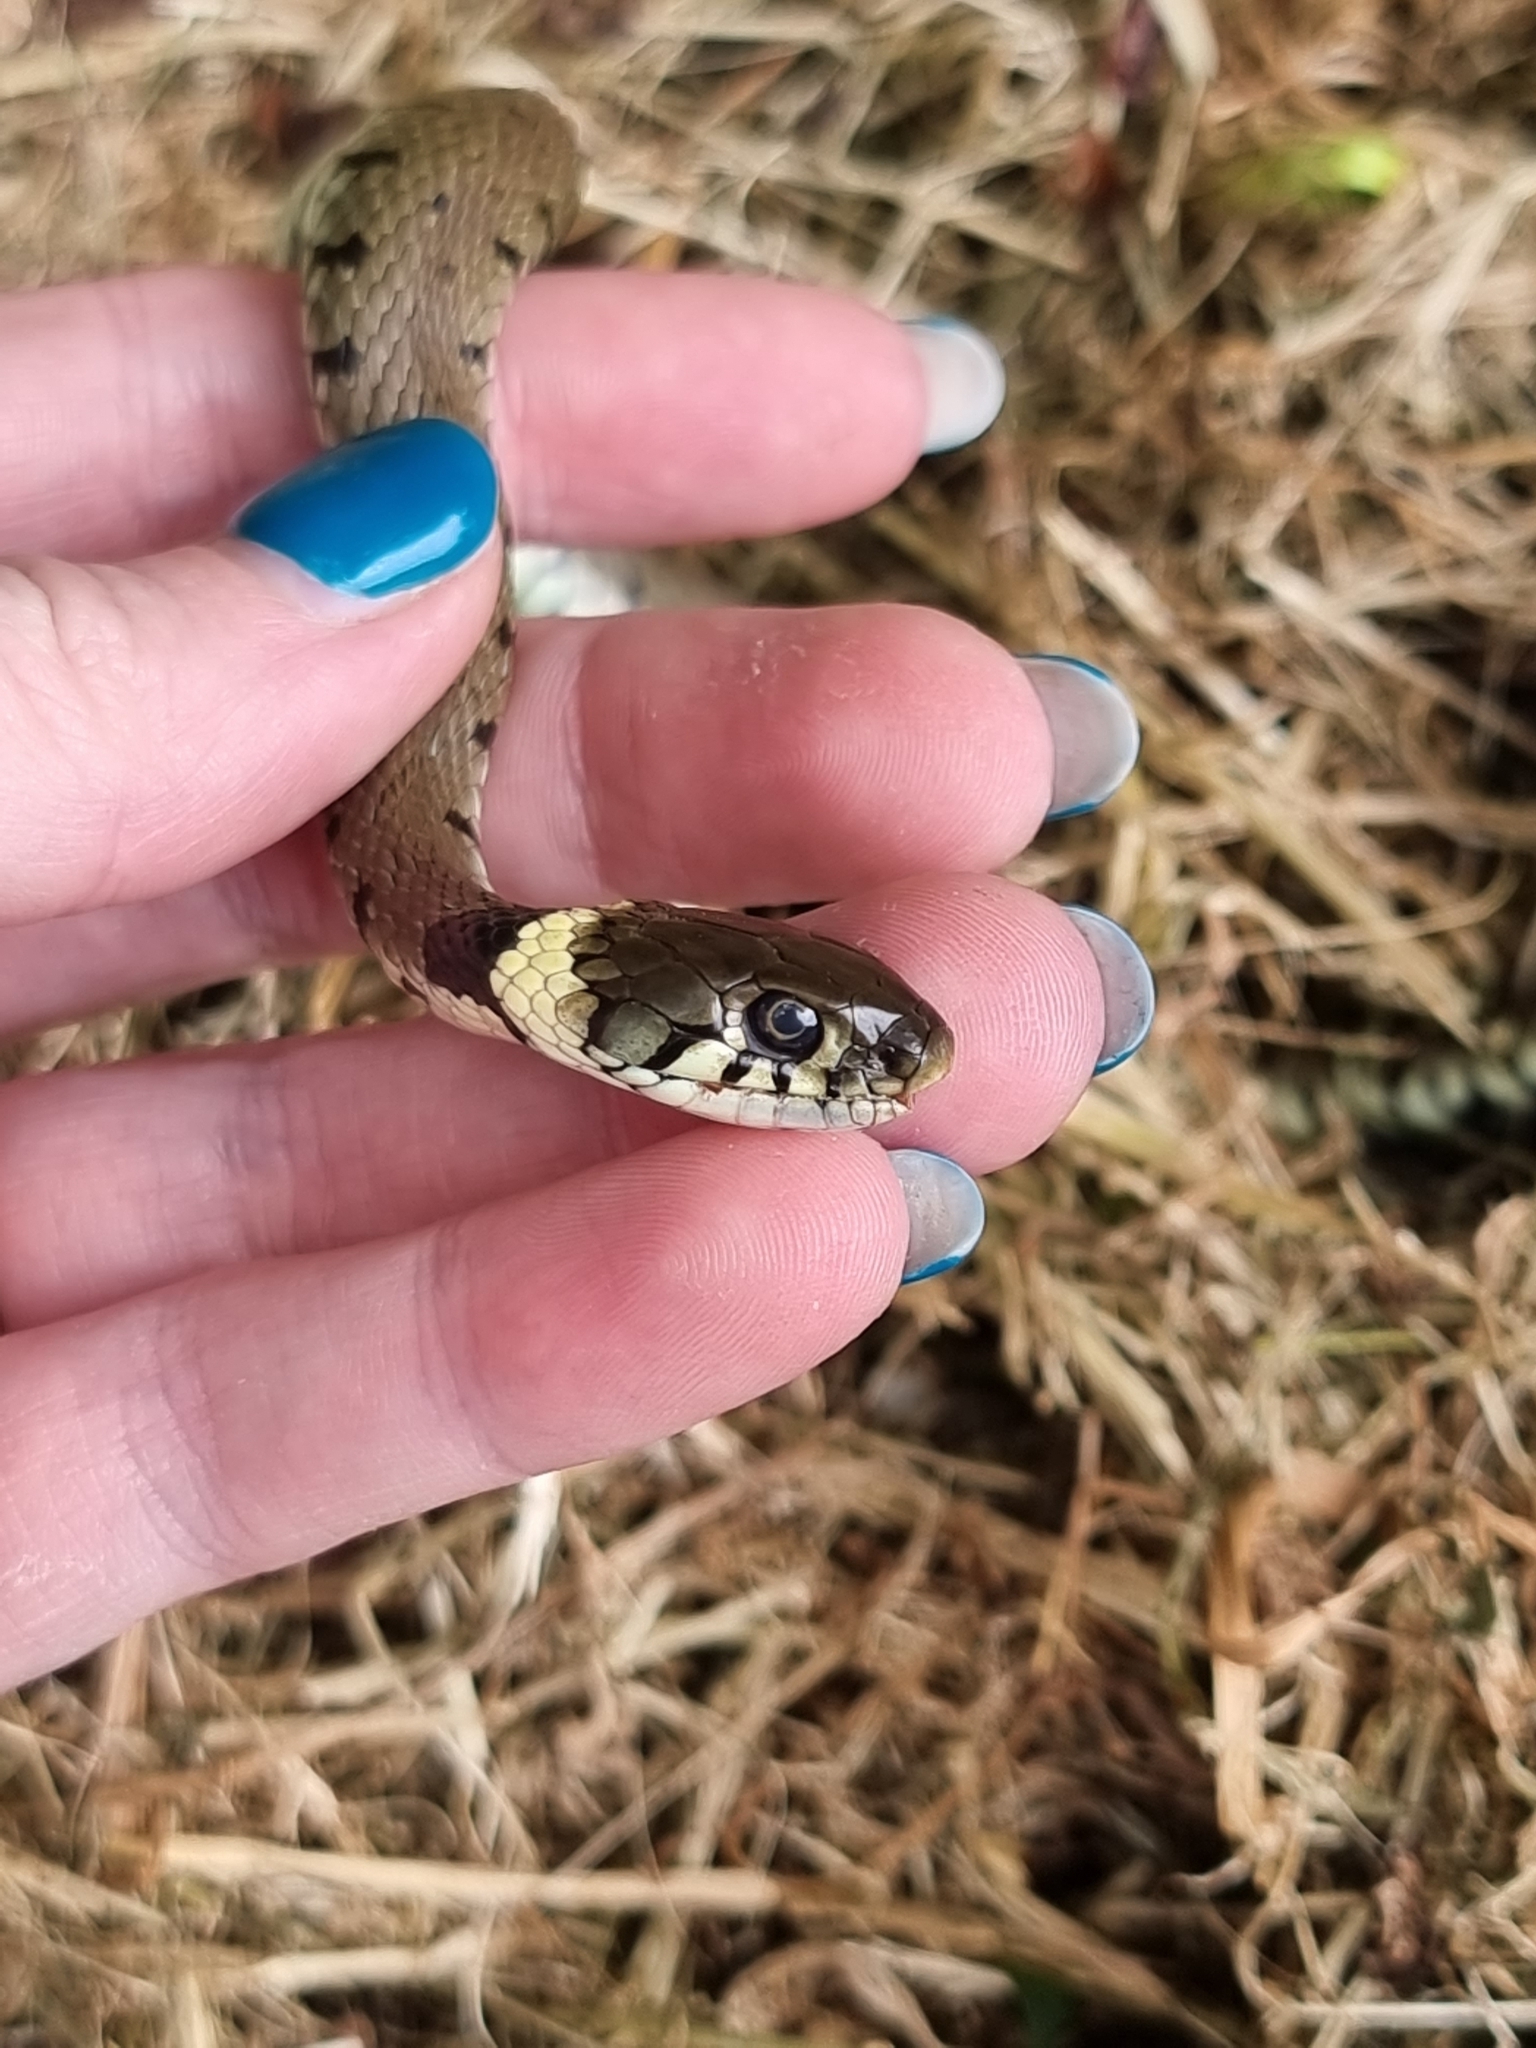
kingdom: Animalia
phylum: Chordata
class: Squamata
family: Colubridae
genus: Natrix
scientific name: Natrix helvetica
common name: Banded grass snake
